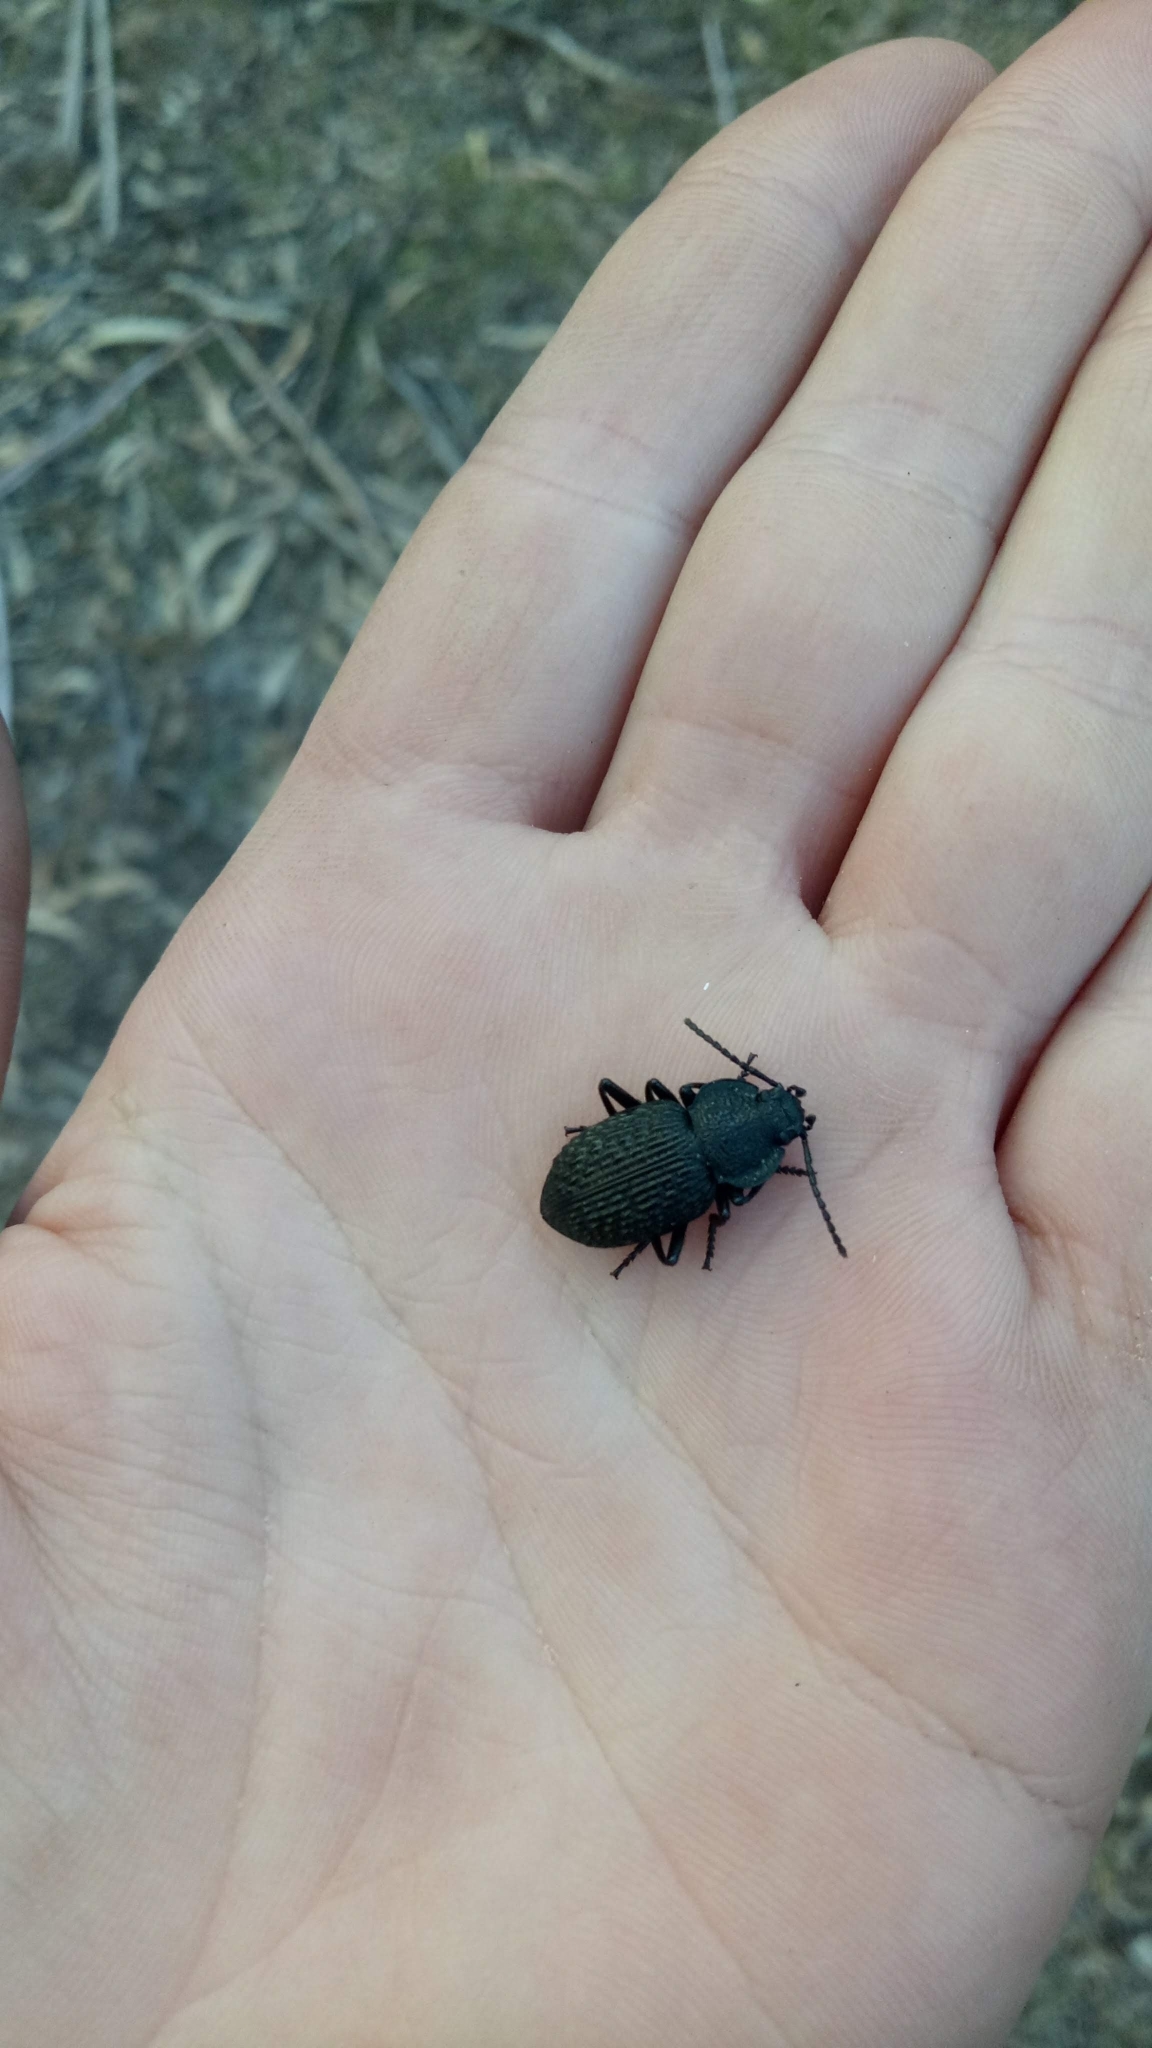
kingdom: Animalia
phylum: Arthropoda
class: Insecta
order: Coleoptera
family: Tenebrionidae
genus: Adelium
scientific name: Adelium
